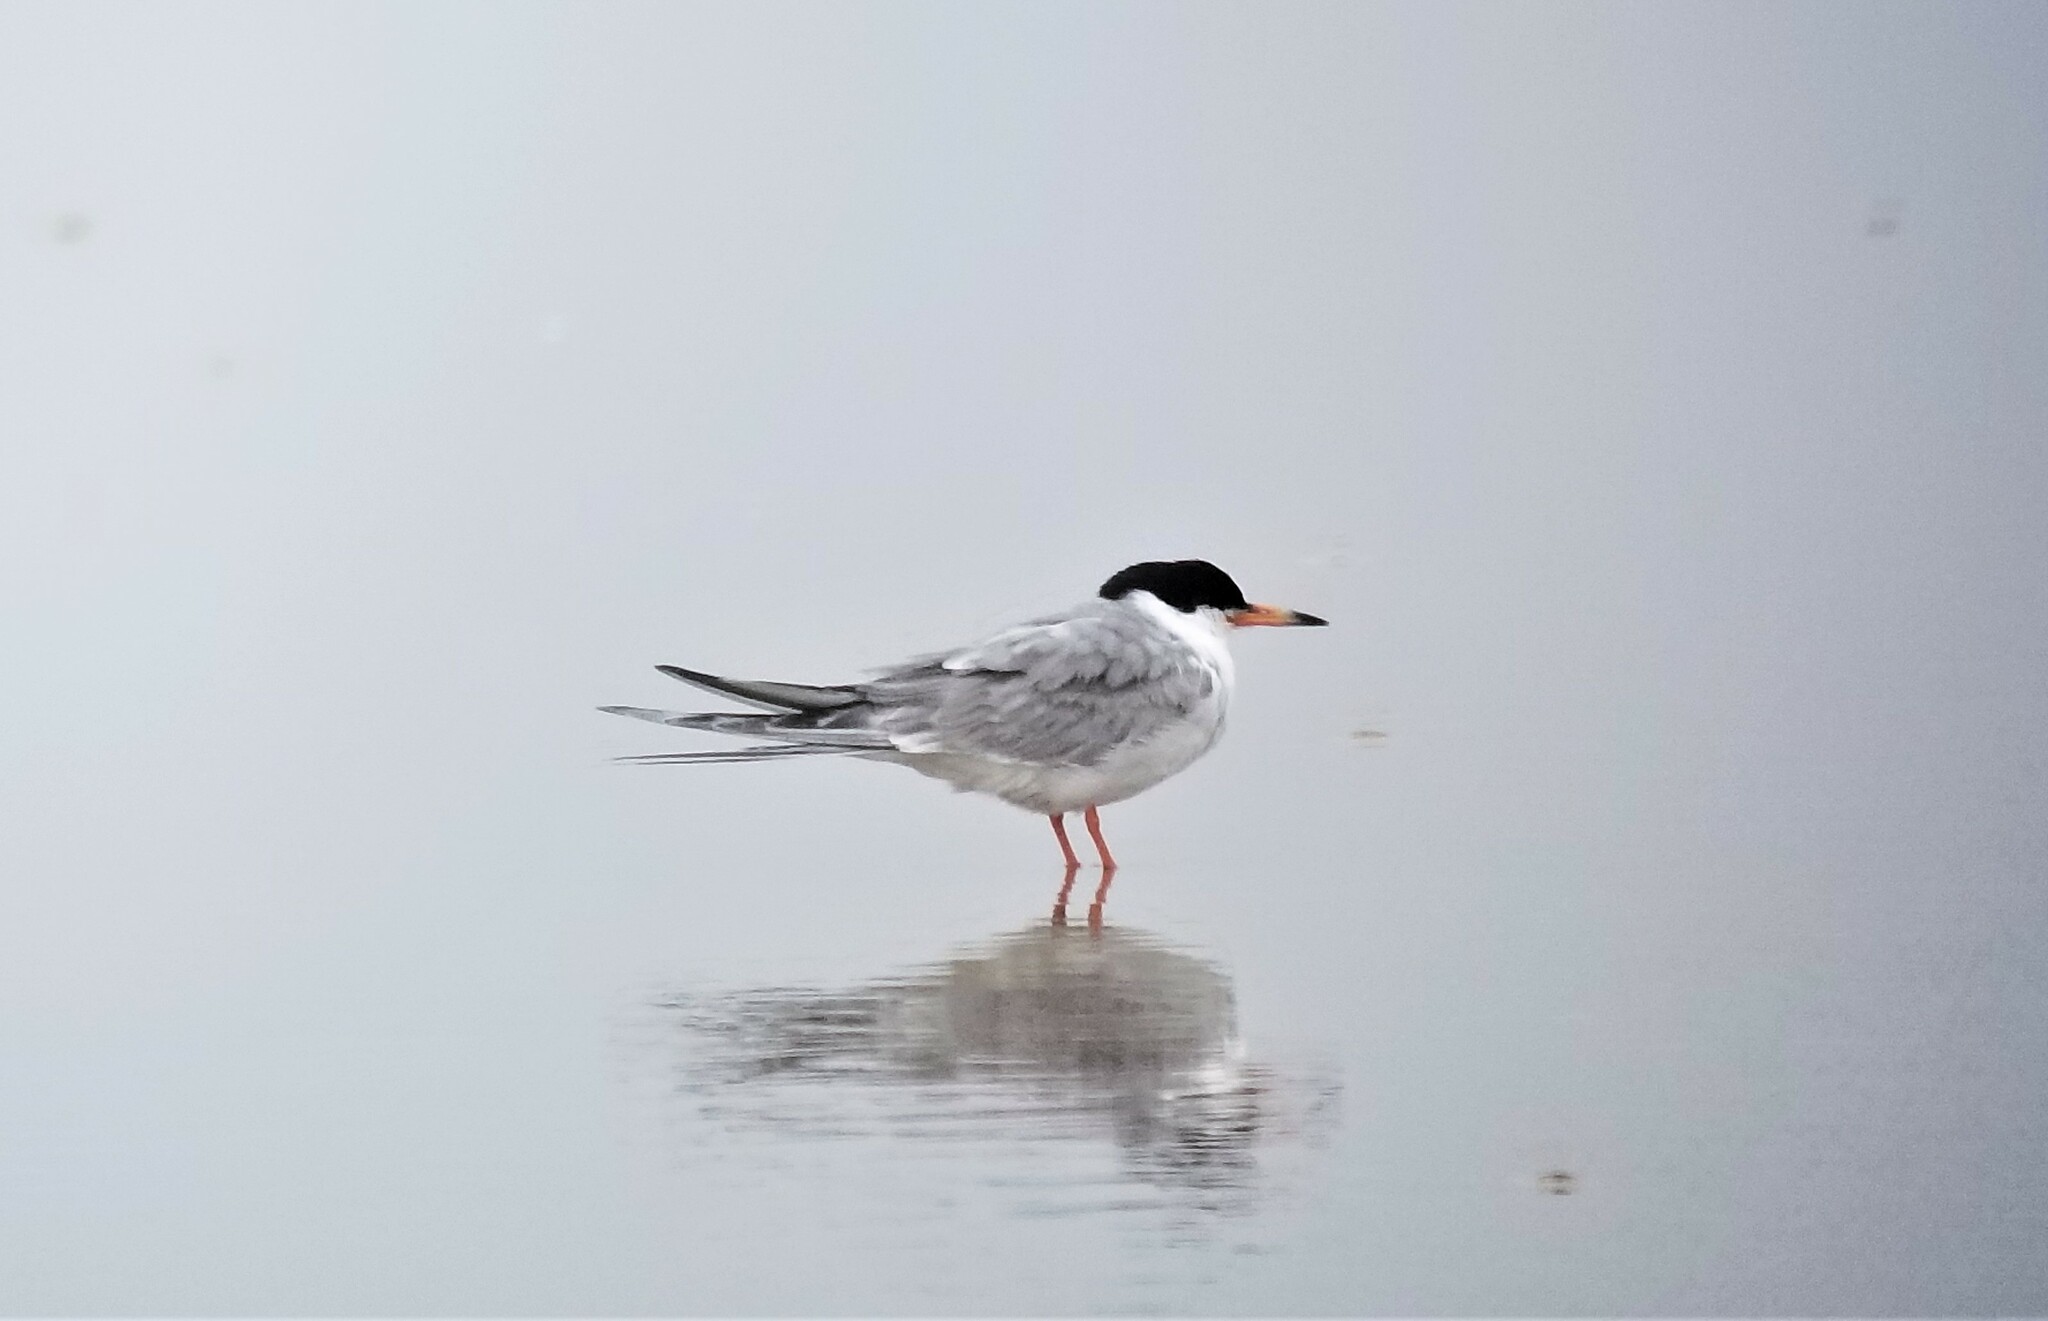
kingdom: Animalia
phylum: Chordata
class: Aves
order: Charadriiformes
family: Laridae
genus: Sterna
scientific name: Sterna forsteri
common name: Forster's tern
